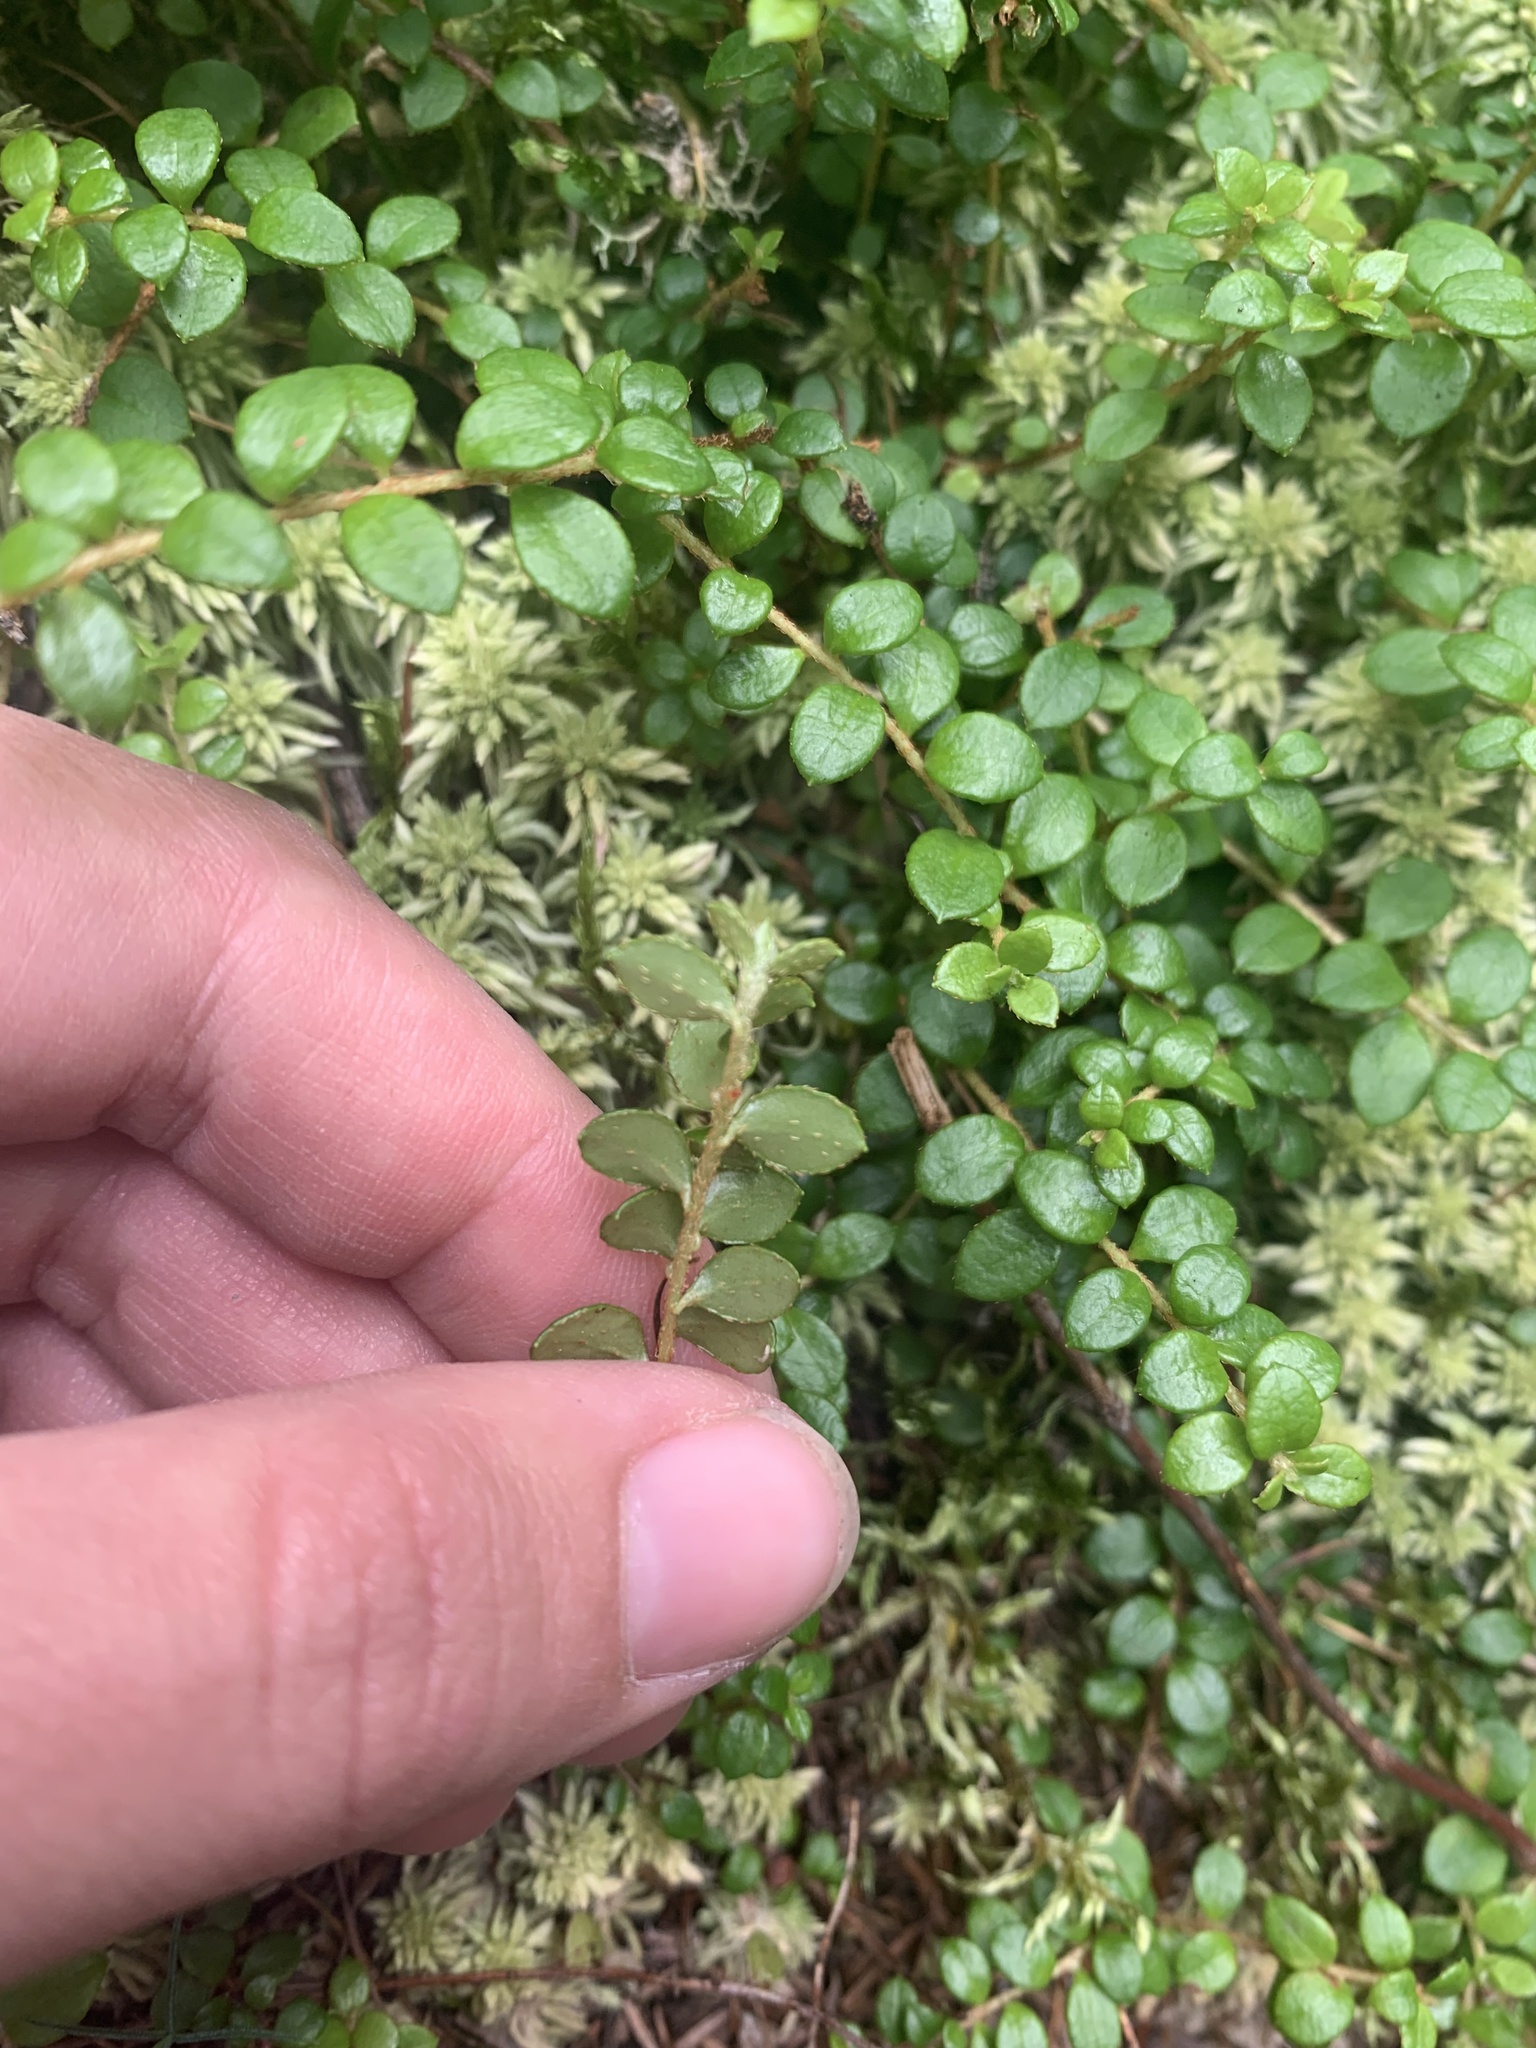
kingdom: Plantae
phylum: Tracheophyta
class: Magnoliopsida
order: Ericales
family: Ericaceae
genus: Gaultheria
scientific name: Gaultheria hispidula
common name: Cancer wintergreen
